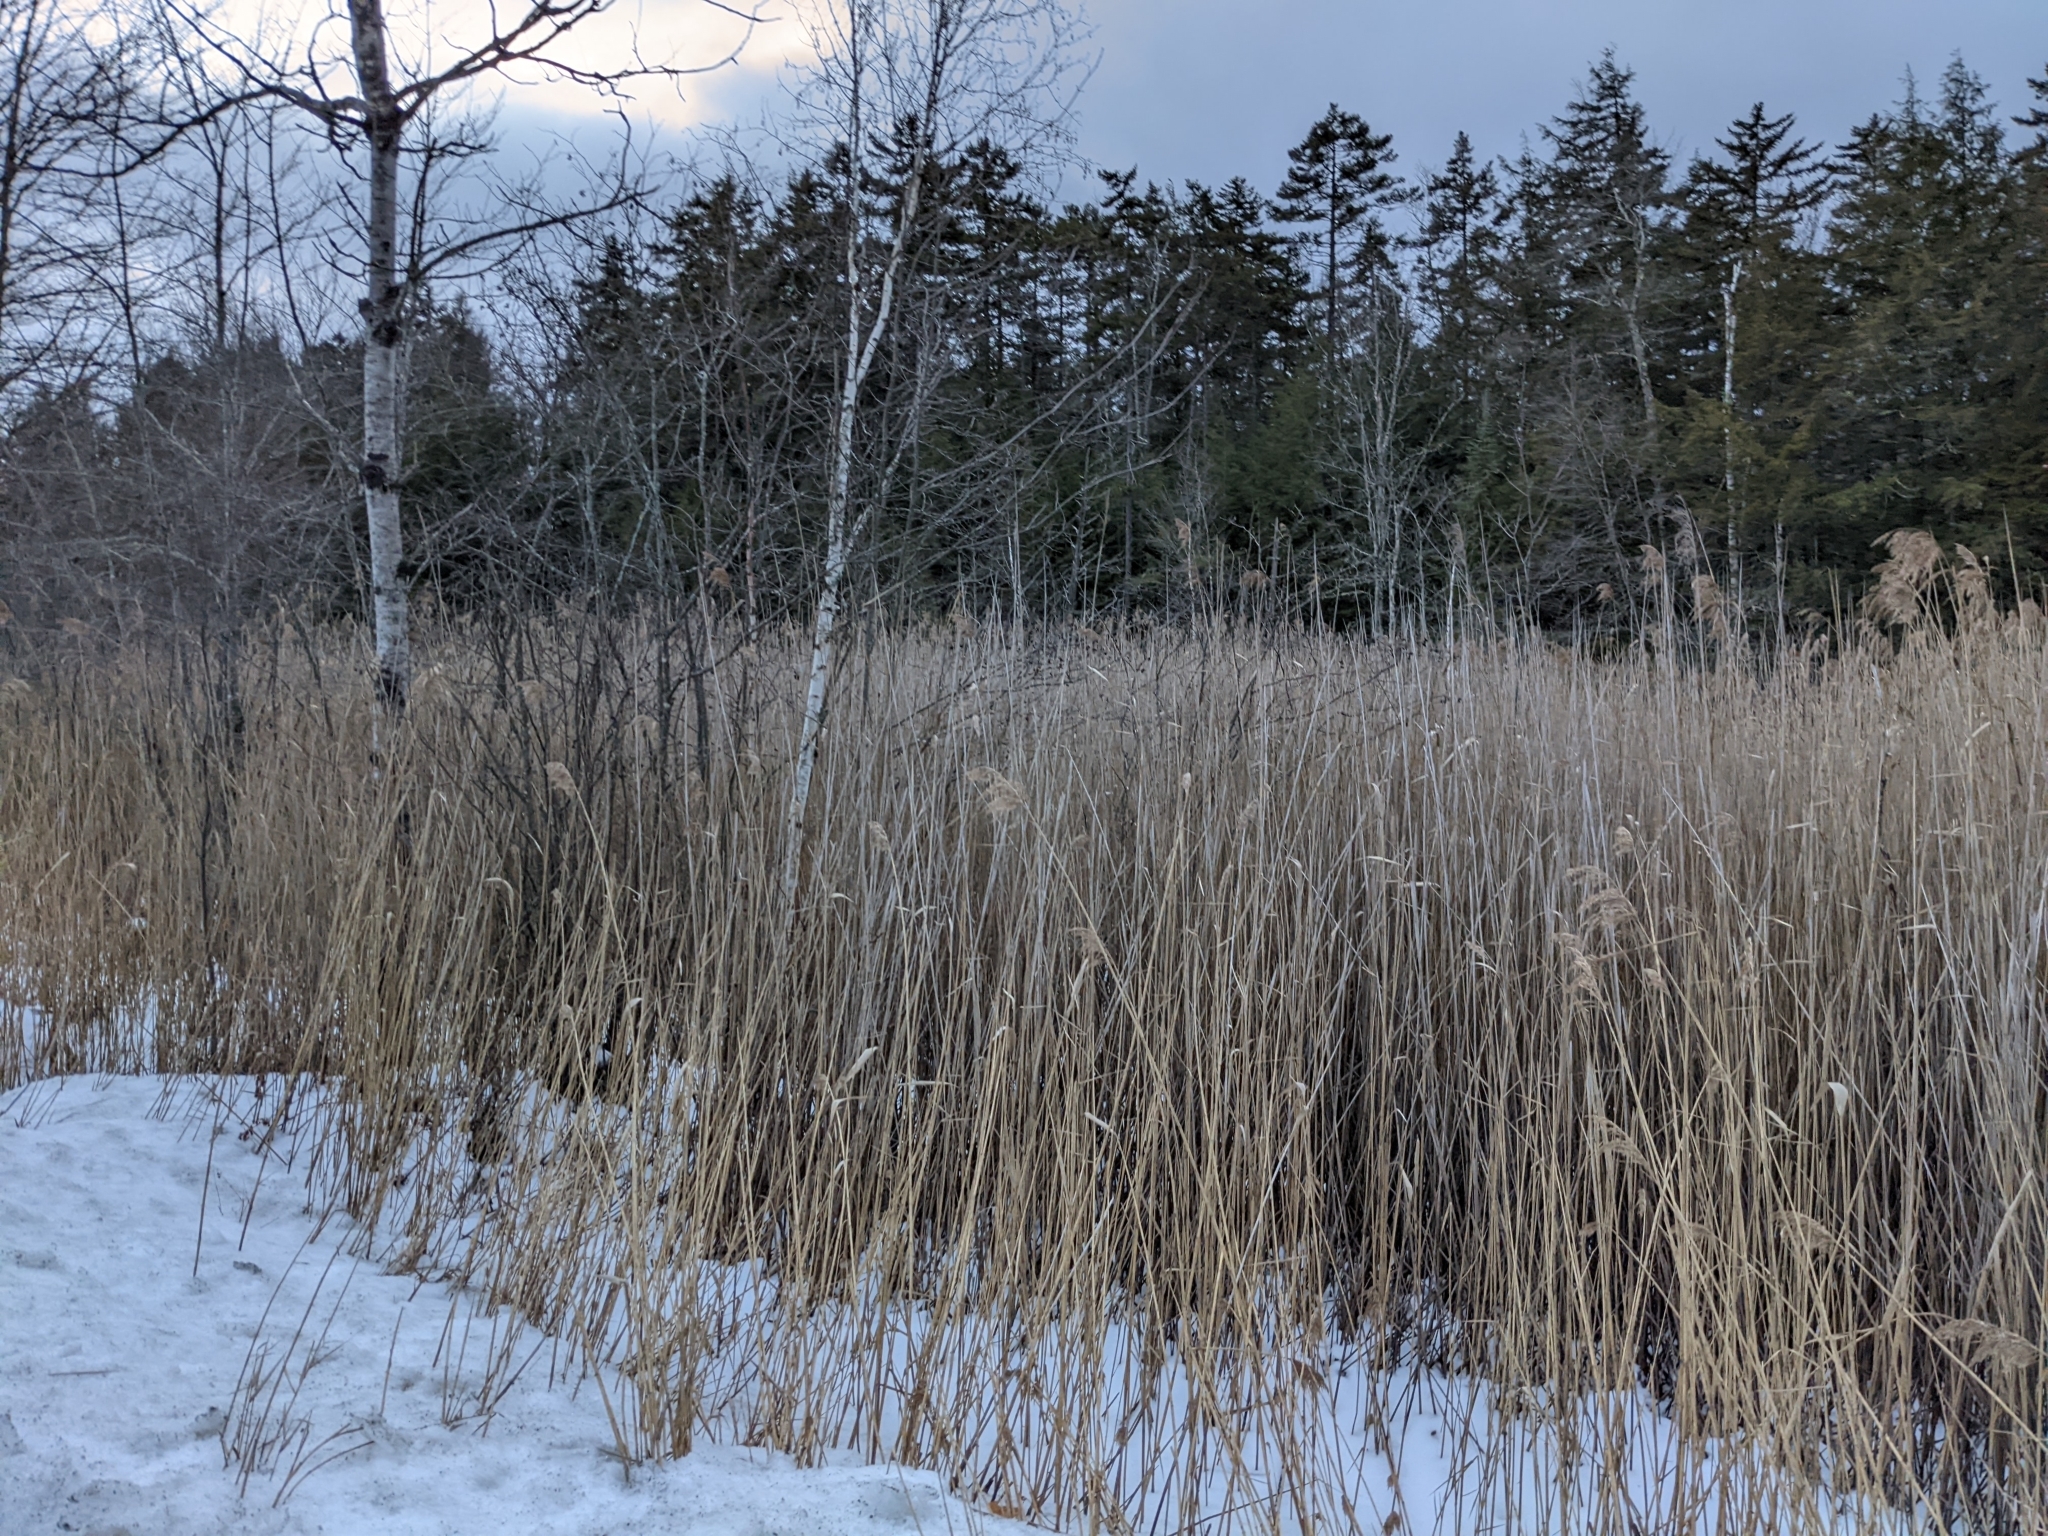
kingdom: Plantae
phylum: Tracheophyta
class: Liliopsida
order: Poales
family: Poaceae
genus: Phragmites
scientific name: Phragmites australis
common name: Common reed
